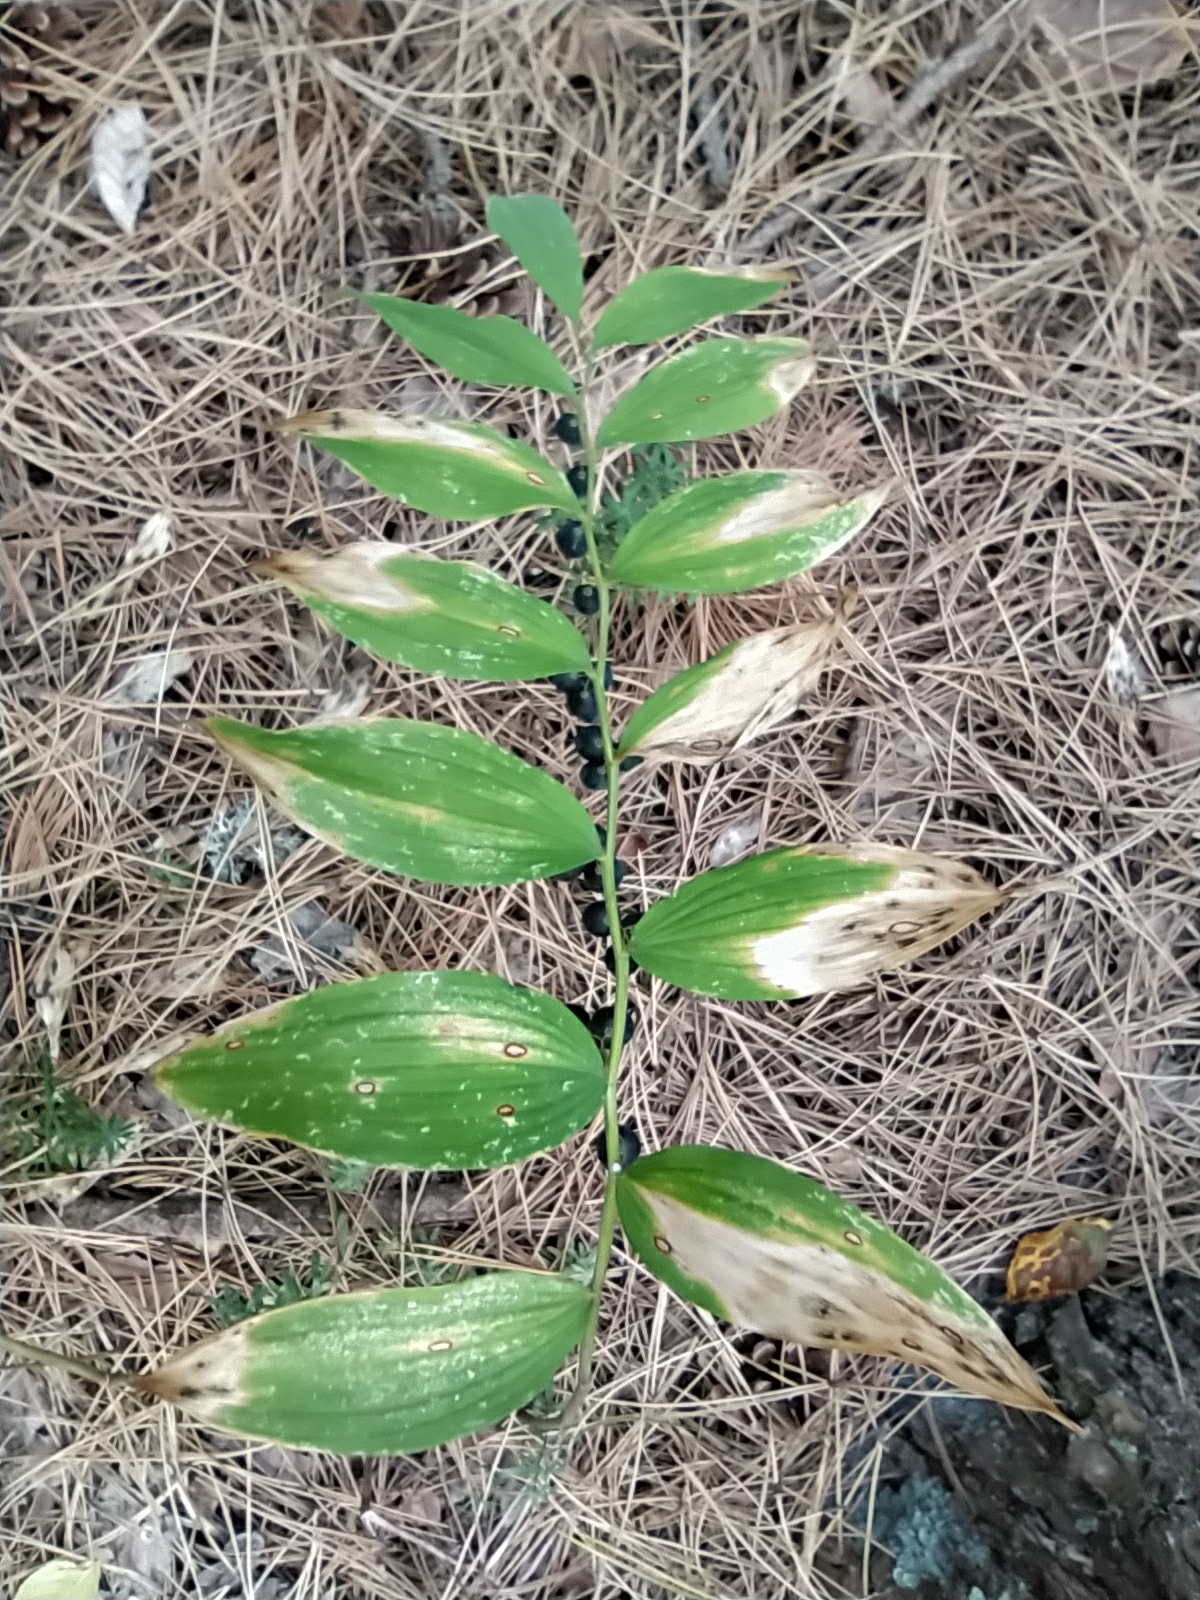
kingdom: Plantae
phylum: Tracheophyta
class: Liliopsida
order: Asparagales
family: Asparagaceae
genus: Polygonatum
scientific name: Polygonatum multiflorum
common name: Solomon's-seal
